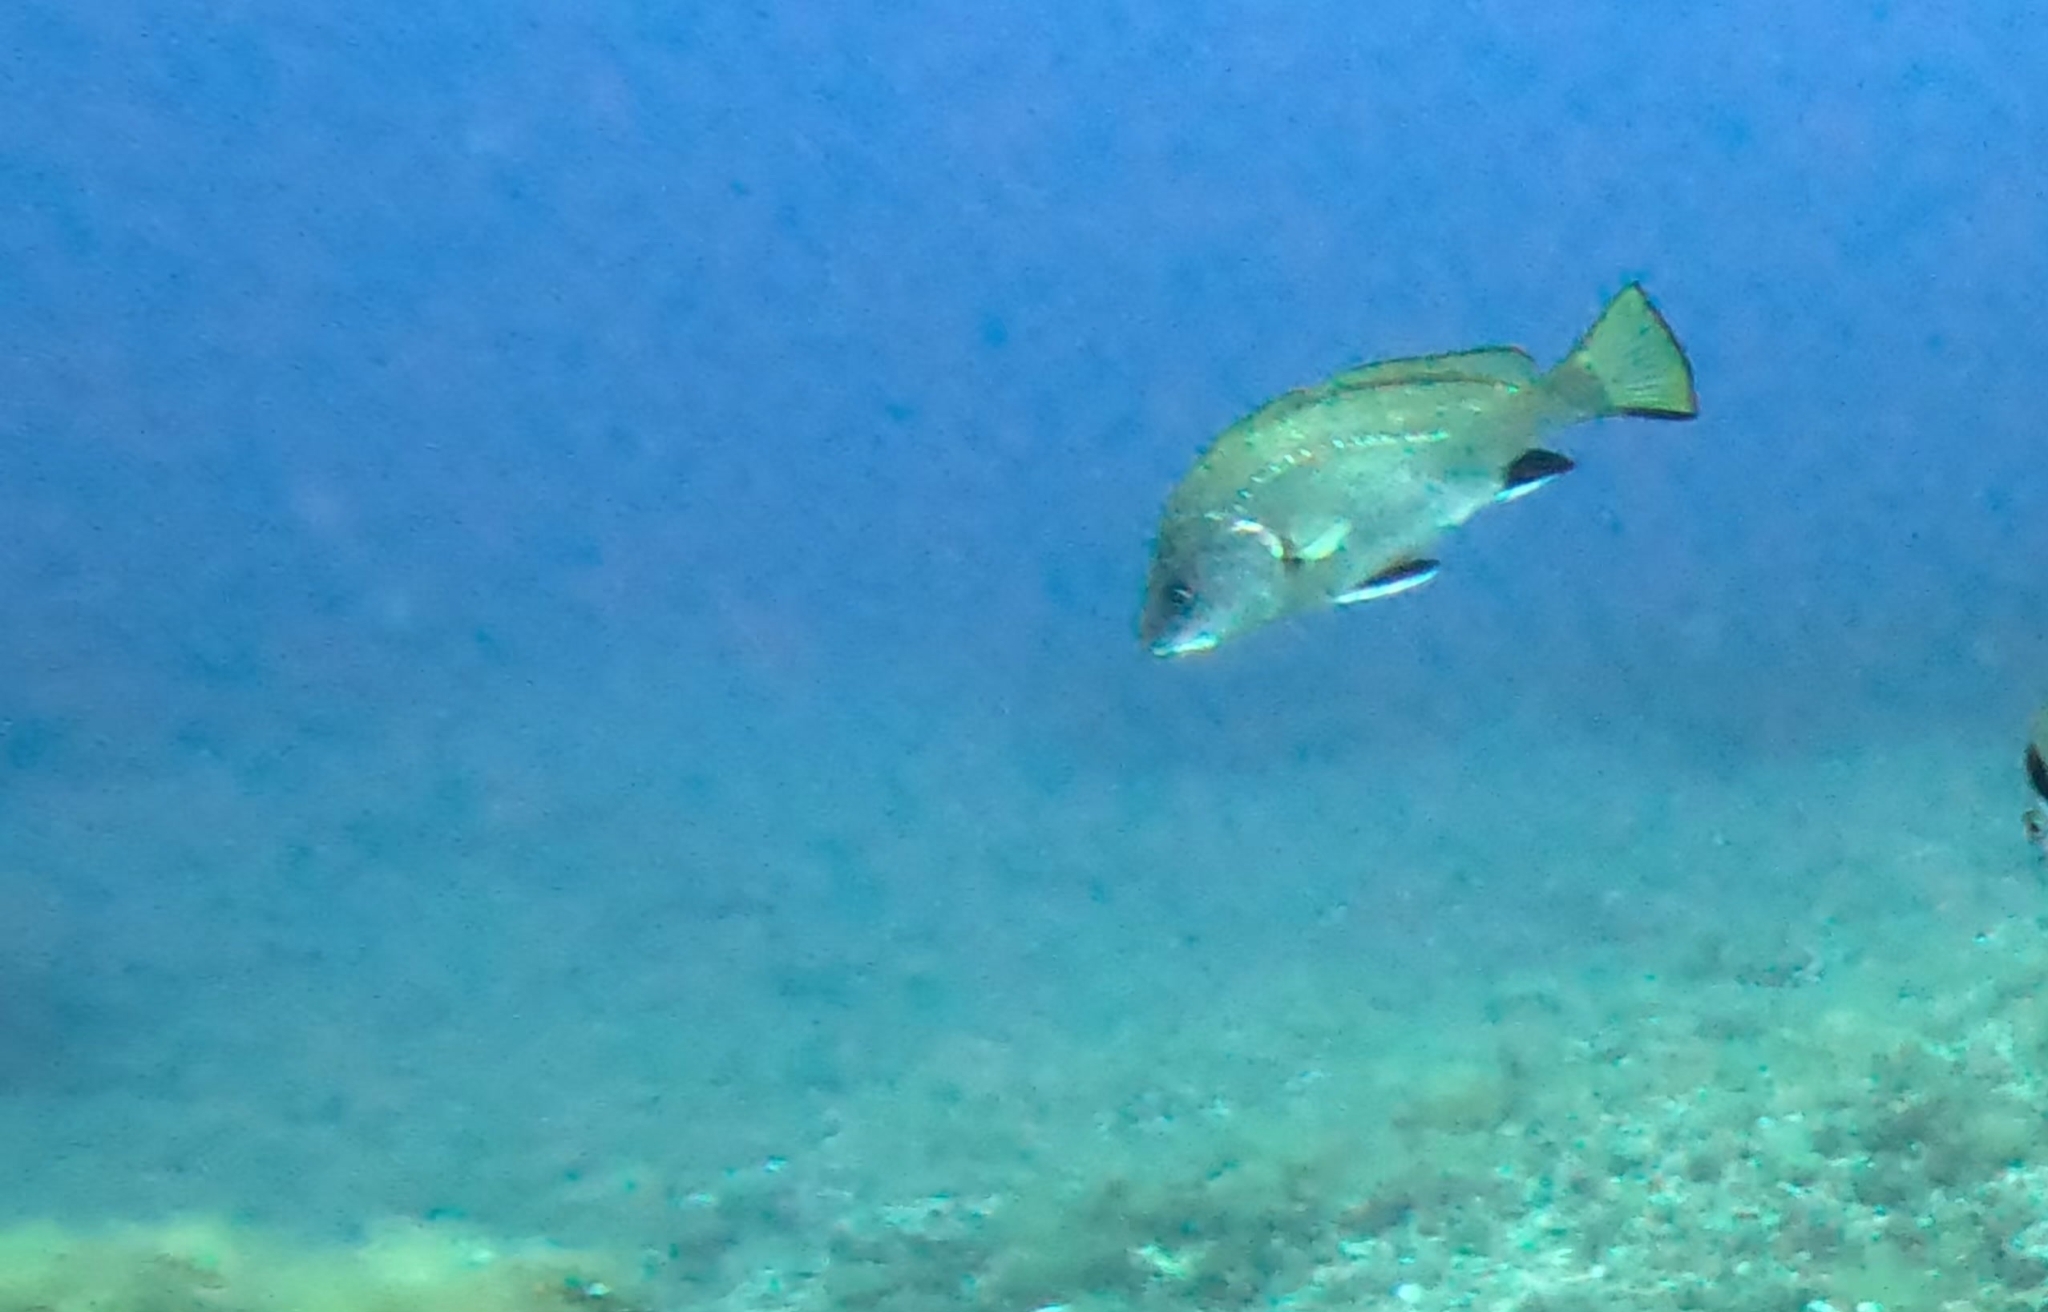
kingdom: Animalia
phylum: Chordata
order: Perciformes
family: Sciaenidae
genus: Sciaena
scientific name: Sciaena umbra
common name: Brown meagre
